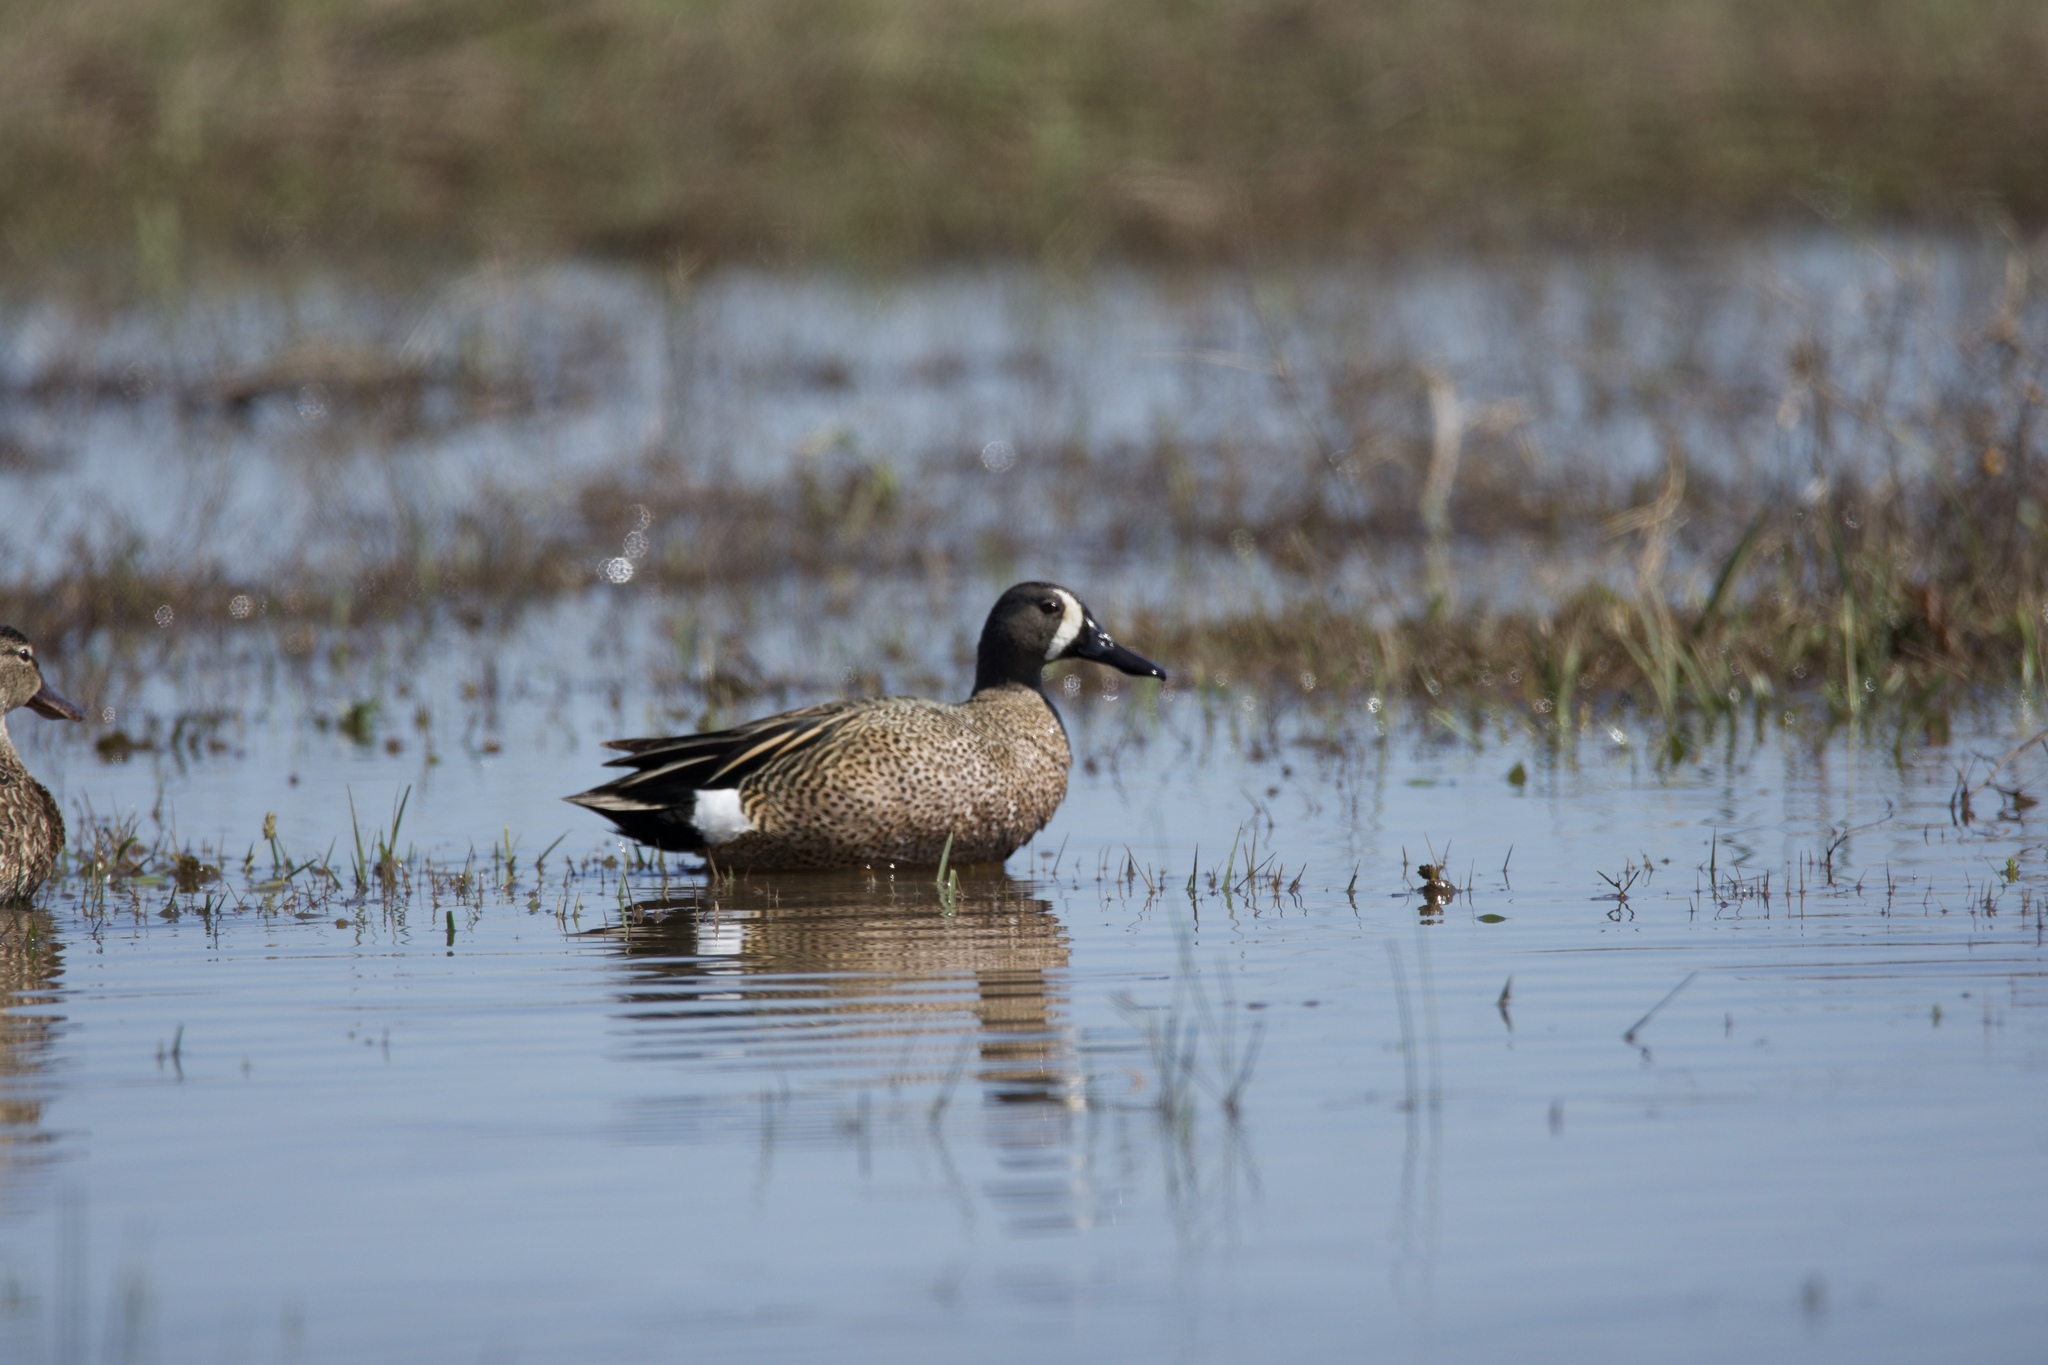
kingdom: Animalia
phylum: Chordata
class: Aves
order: Anseriformes
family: Anatidae
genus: Spatula
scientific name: Spatula discors
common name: Blue-winged teal
